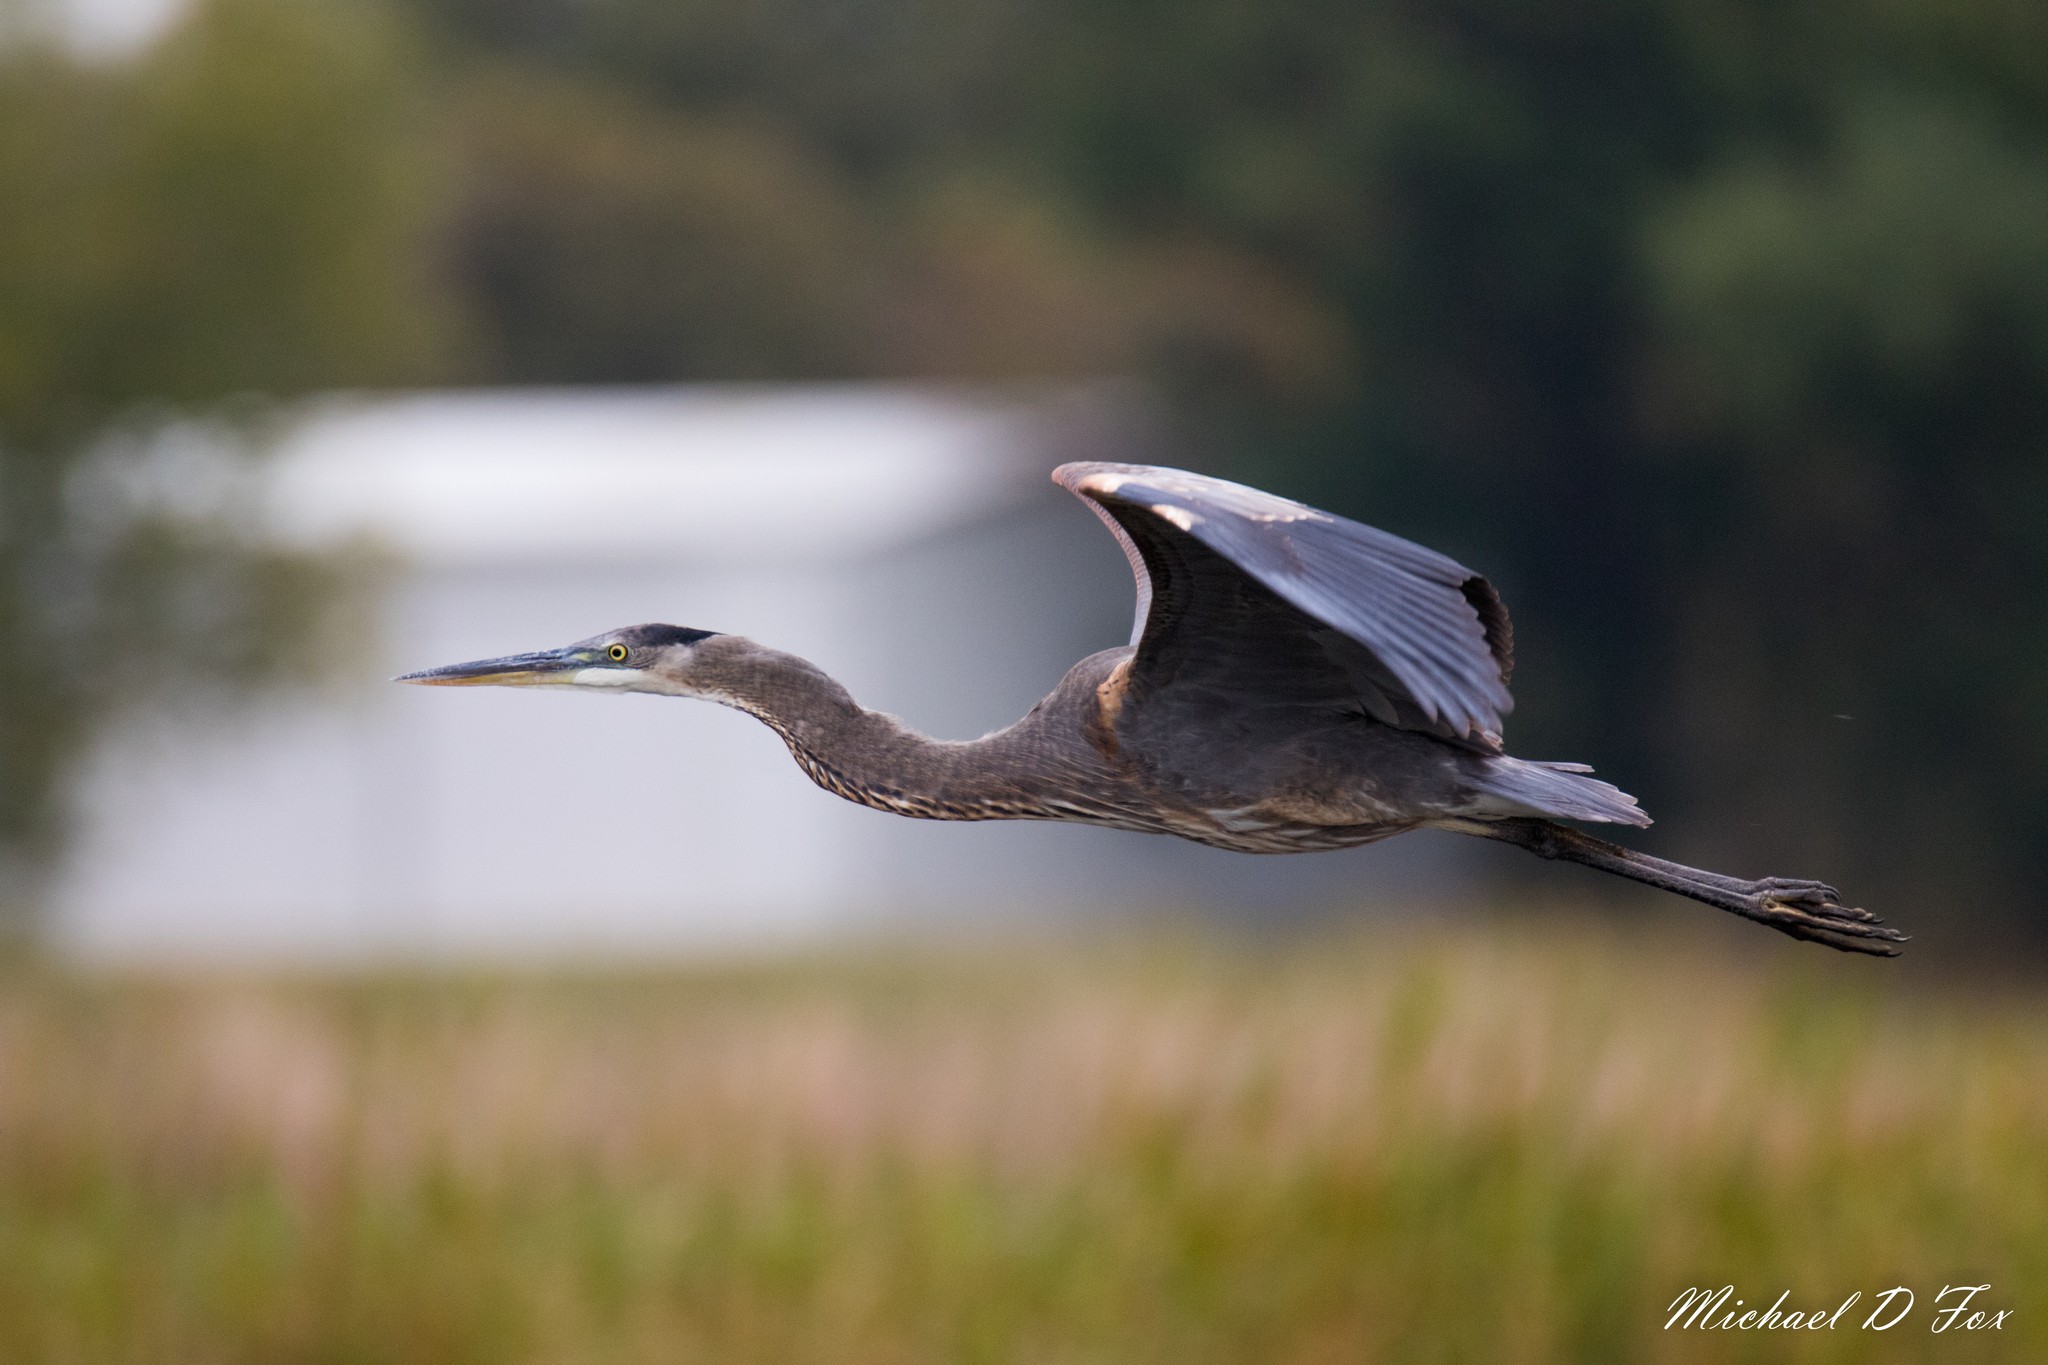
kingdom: Animalia
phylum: Chordata
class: Aves
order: Pelecaniformes
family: Ardeidae
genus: Ardea
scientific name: Ardea herodias
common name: Great blue heron
